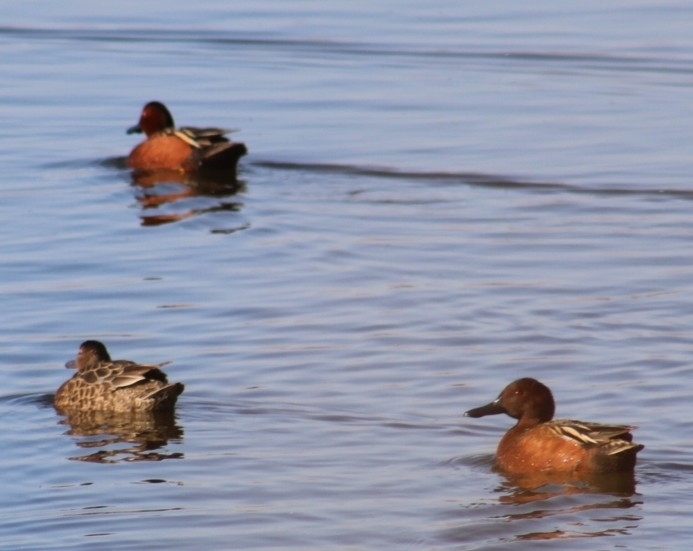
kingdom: Animalia
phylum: Chordata
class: Aves
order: Anseriformes
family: Anatidae
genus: Spatula
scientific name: Spatula cyanoptera
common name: Cinnamon teal
